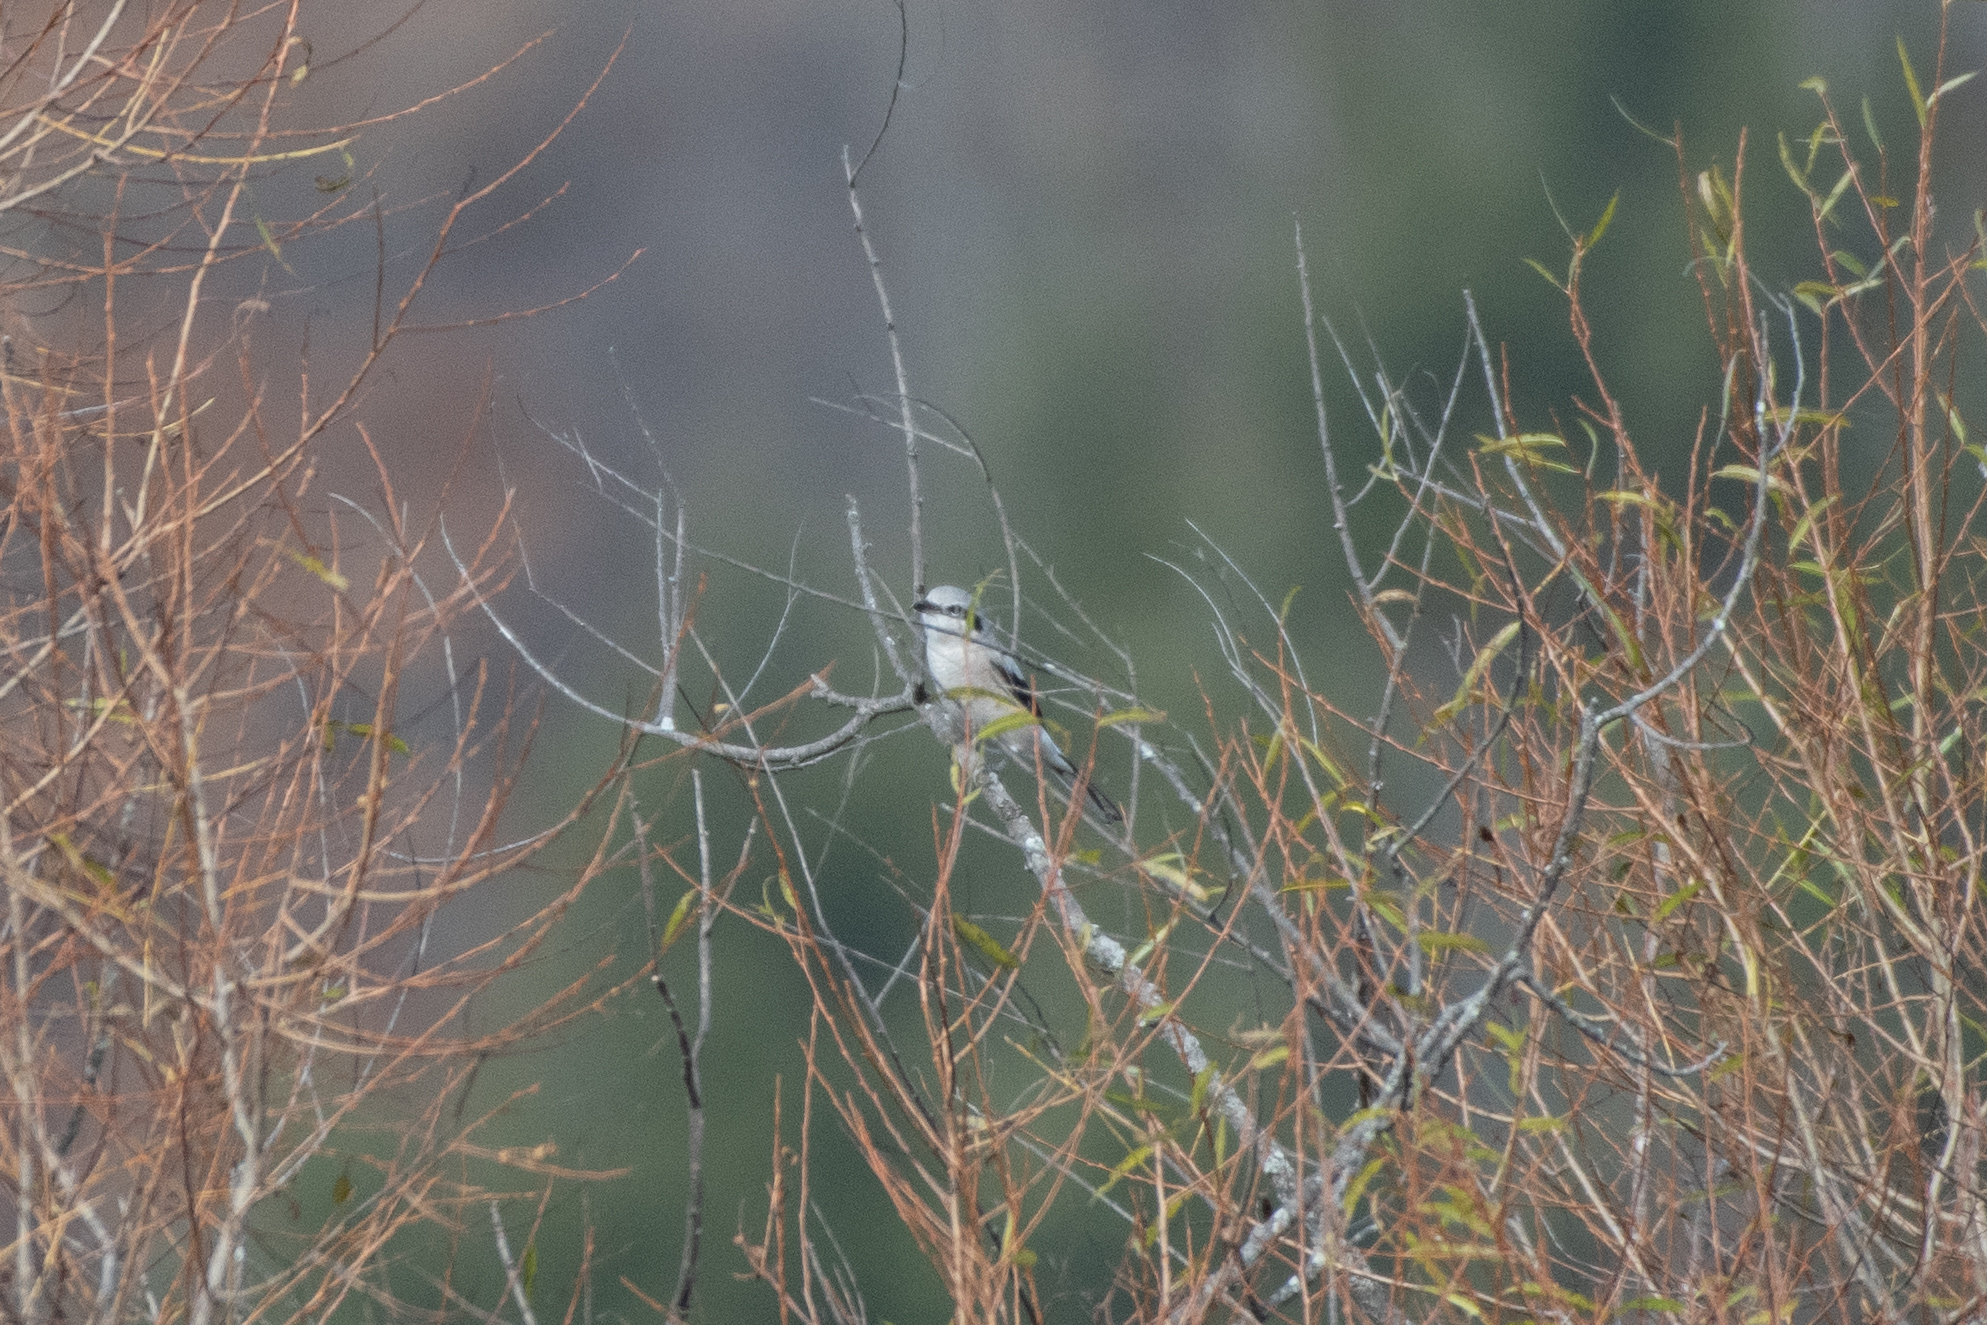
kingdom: Animalia
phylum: Chordata
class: Aves
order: Passeriformes
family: Laniidae
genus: Lanius
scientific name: Lanius borealis
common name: Northern shrike
